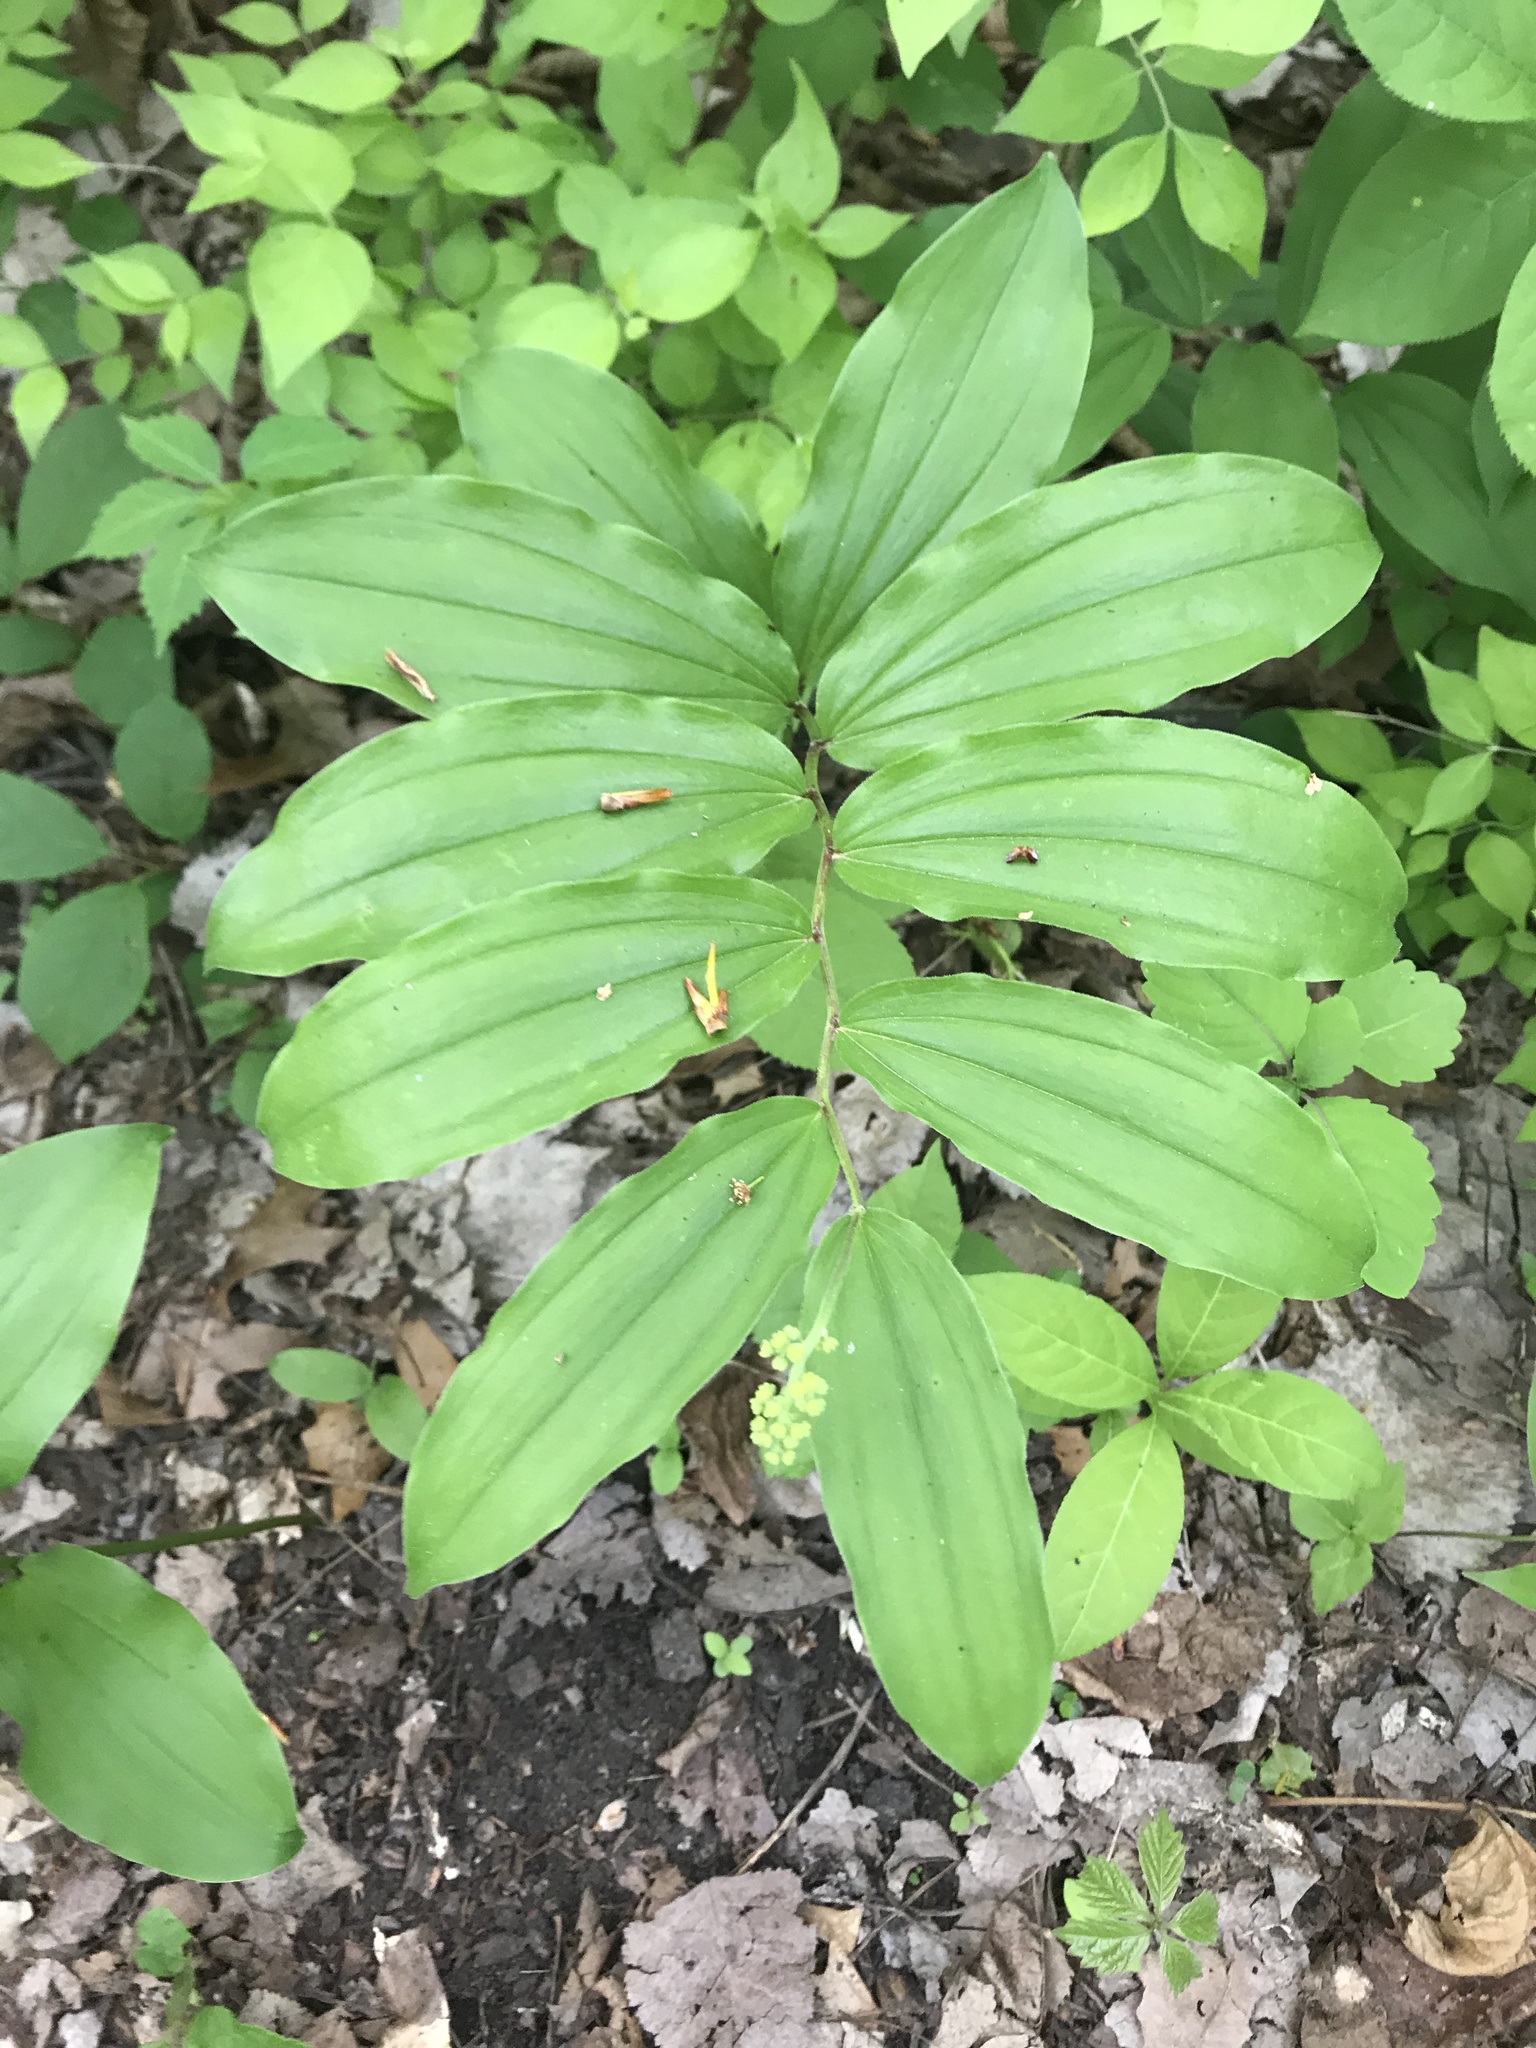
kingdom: Plantae
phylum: Tracheophyta
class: Liliopsida
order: Asparagales
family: Asparagaceae
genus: Maianthemum
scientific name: Maianthemum racemosum
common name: False spikenard
